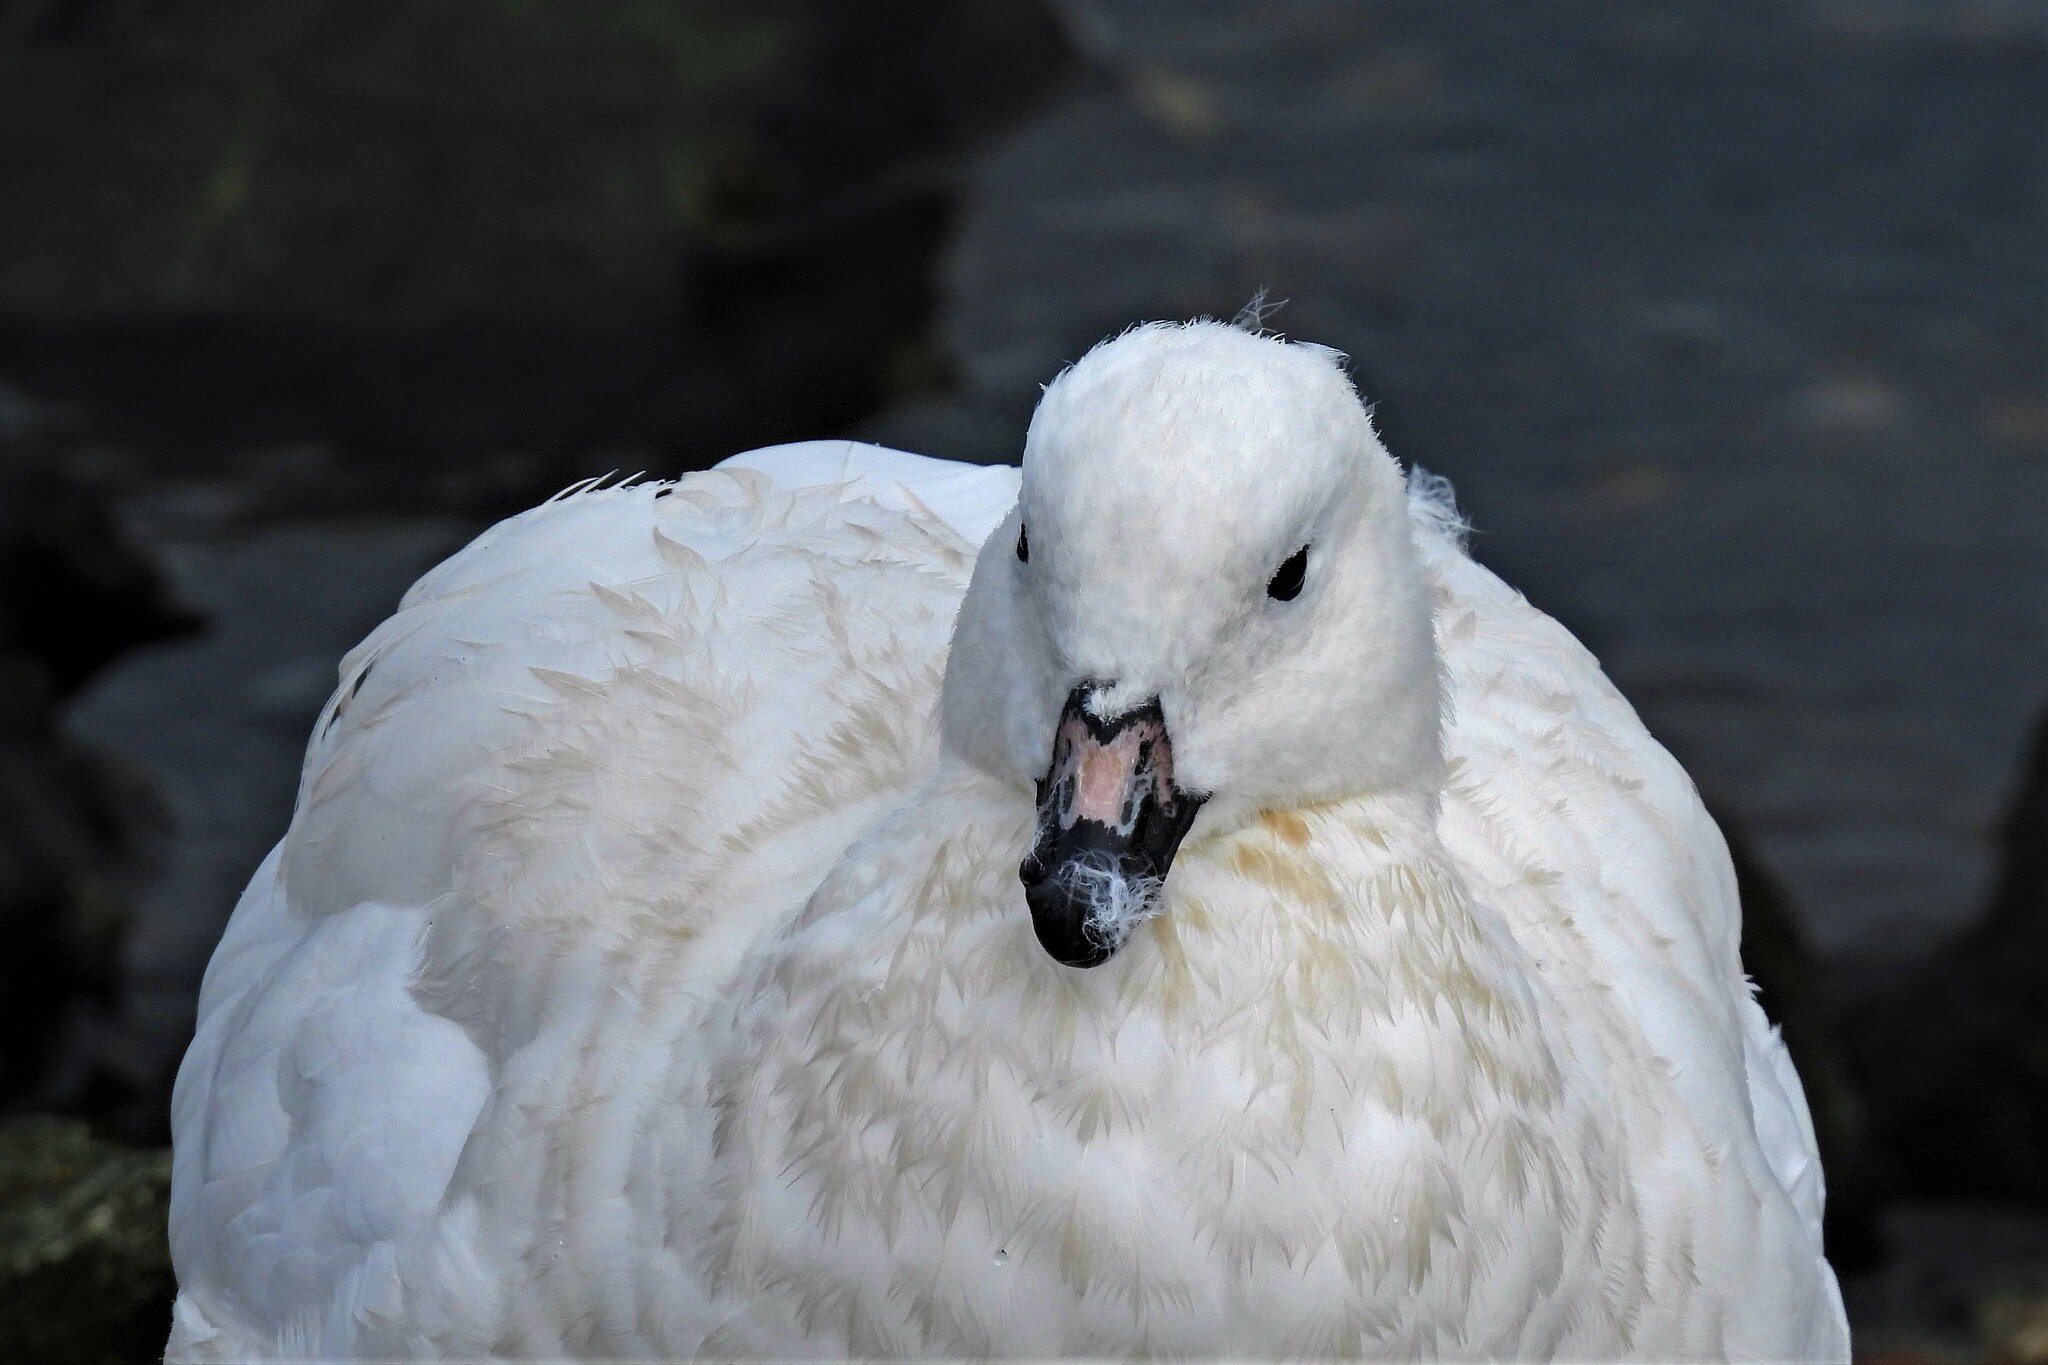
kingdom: Animalia
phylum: Chordata
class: Aves
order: Anseriformes
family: Anatidae
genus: Chloephaga
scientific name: Chloephaga hybrida
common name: Kelp goose
